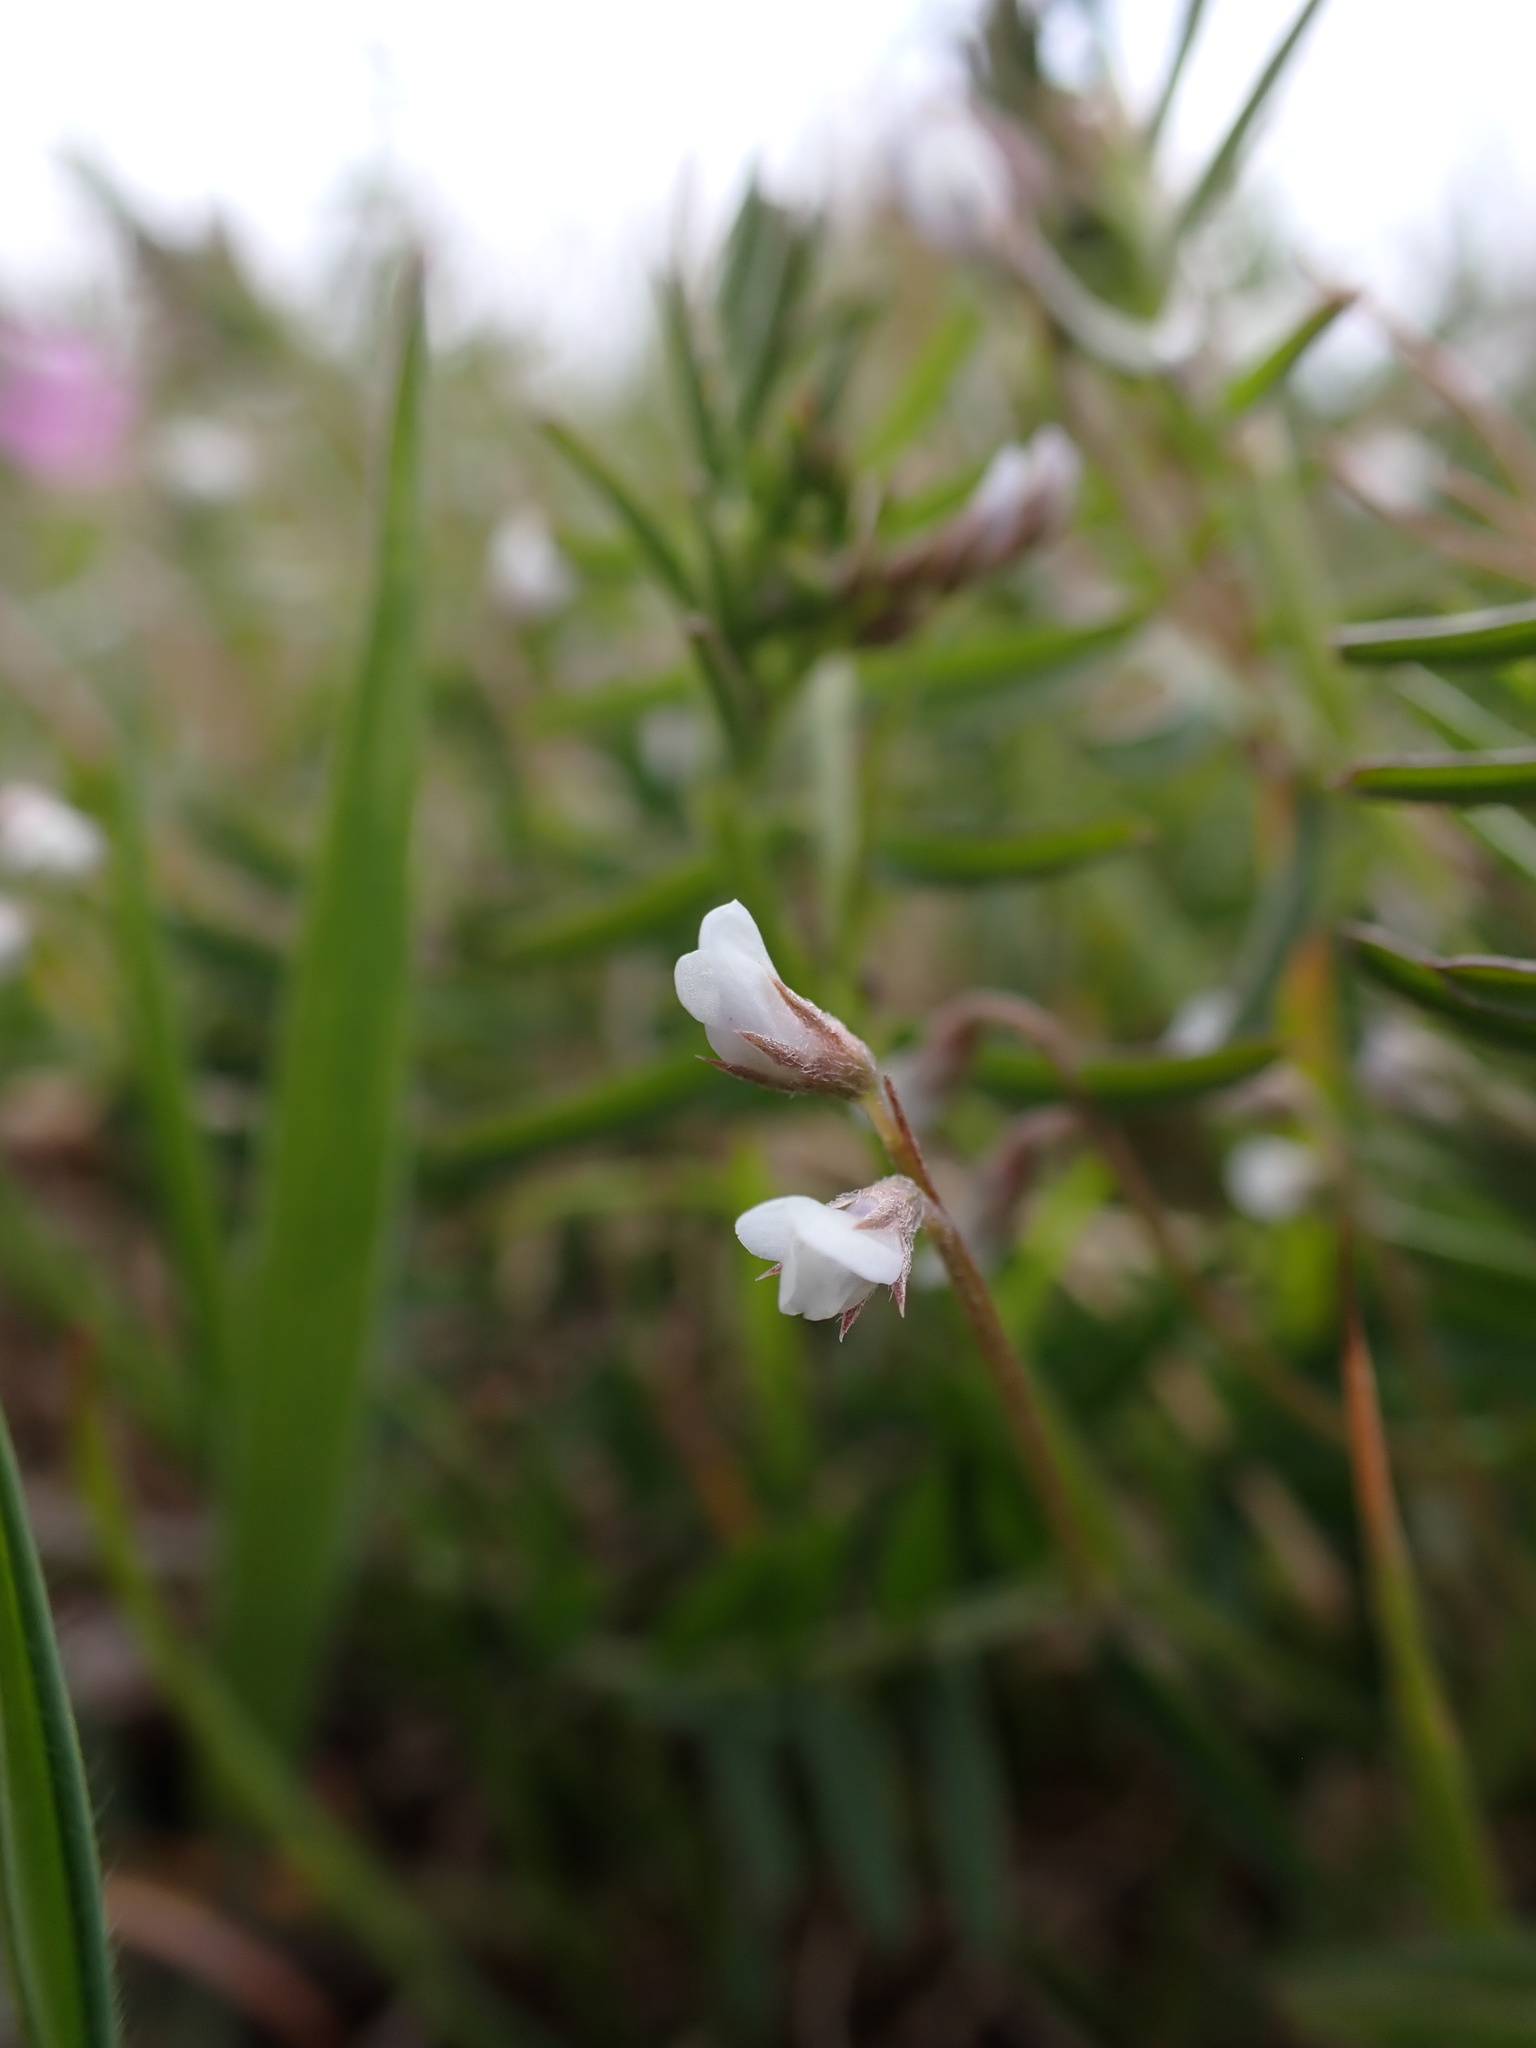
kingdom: Plantae
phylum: Tracheophyta
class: Magnoliopsida
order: Fabales
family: Fabaceae
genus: Vicia
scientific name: Vicia hirsuta
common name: Tiny vetch
